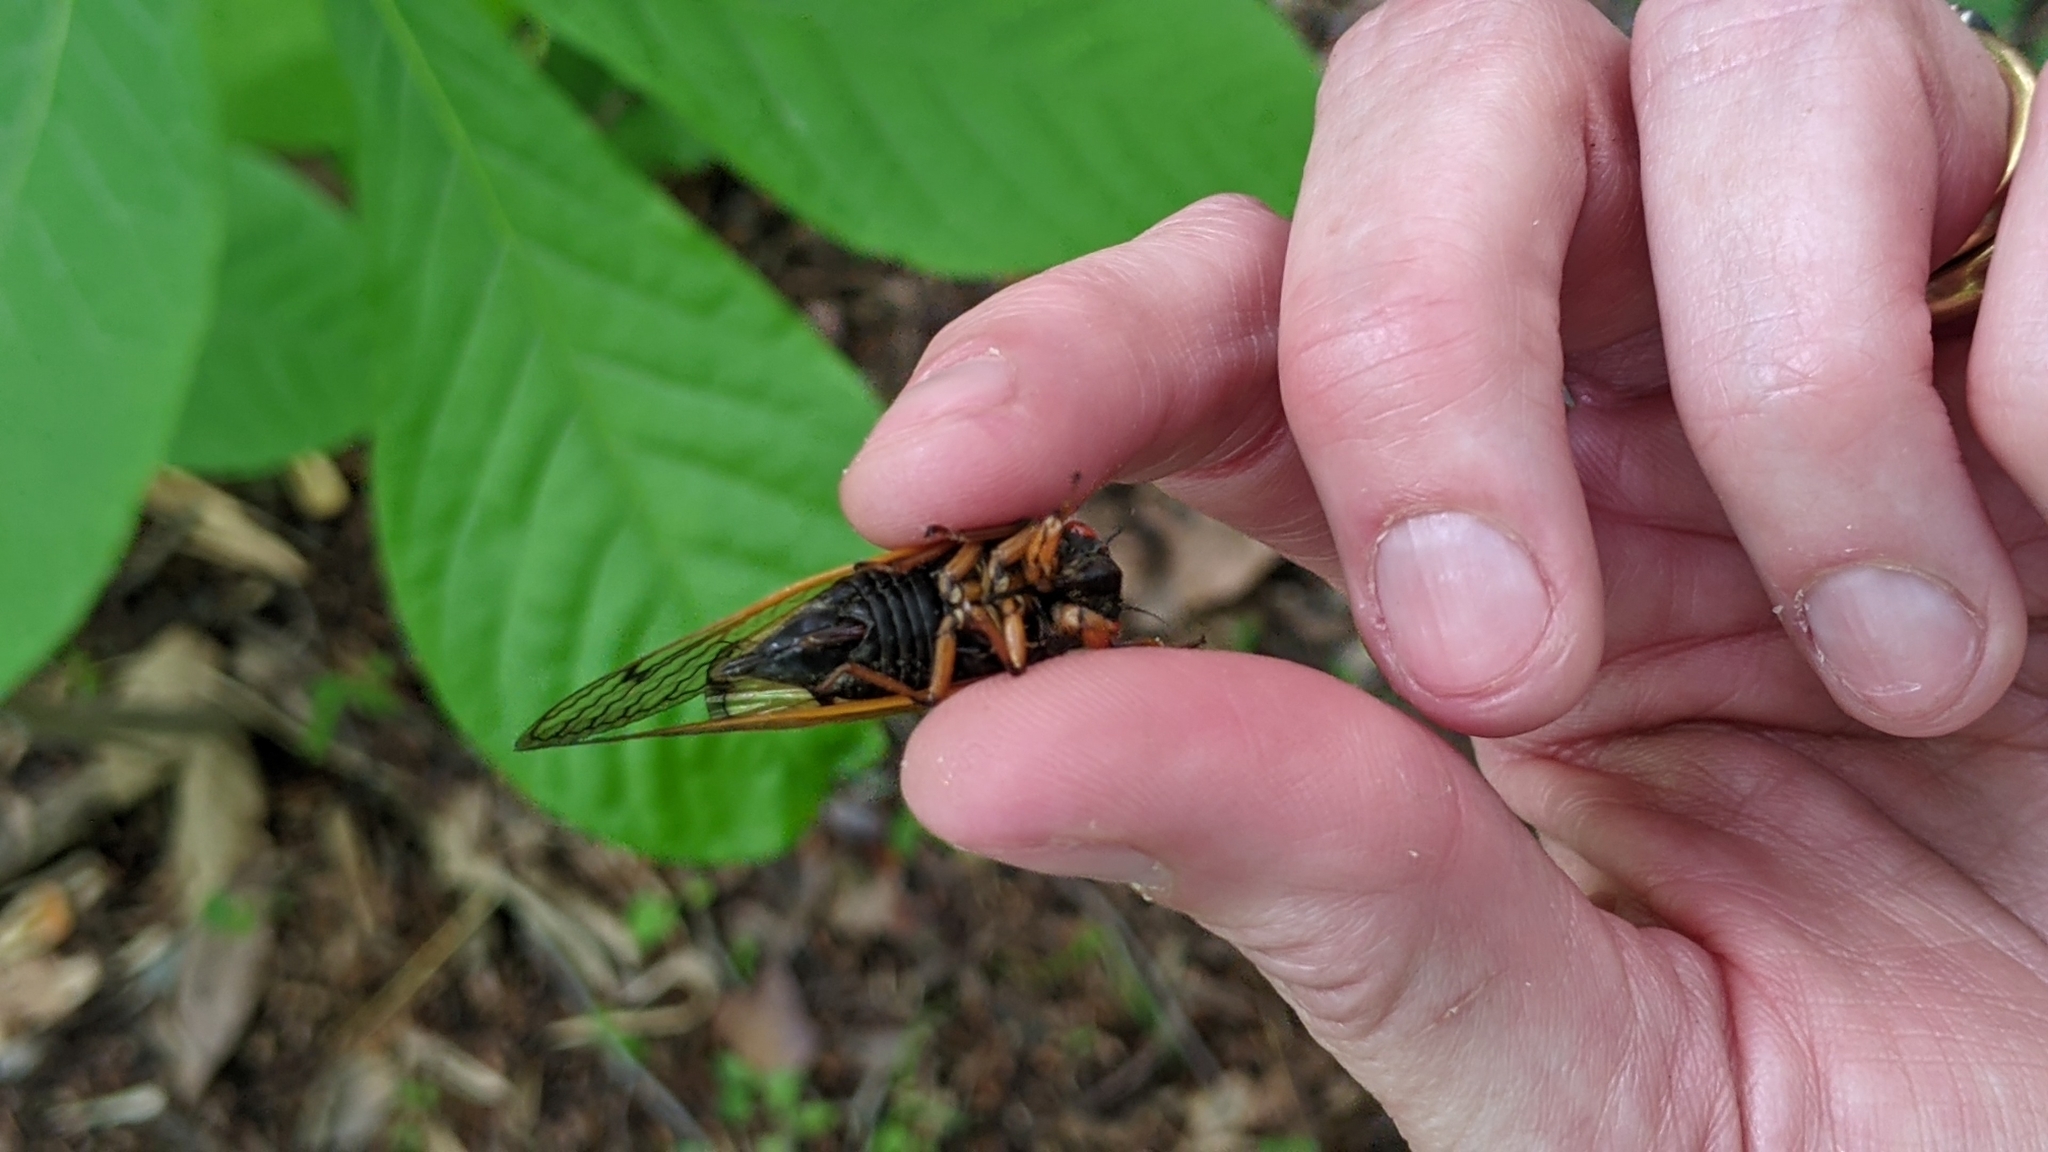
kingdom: Animalia
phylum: Arthropoda
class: Insecta
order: Hemiptera
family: Cicadidae
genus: Magicicada
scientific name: Magicicada cassini
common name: Cassin's 17-year cicada
